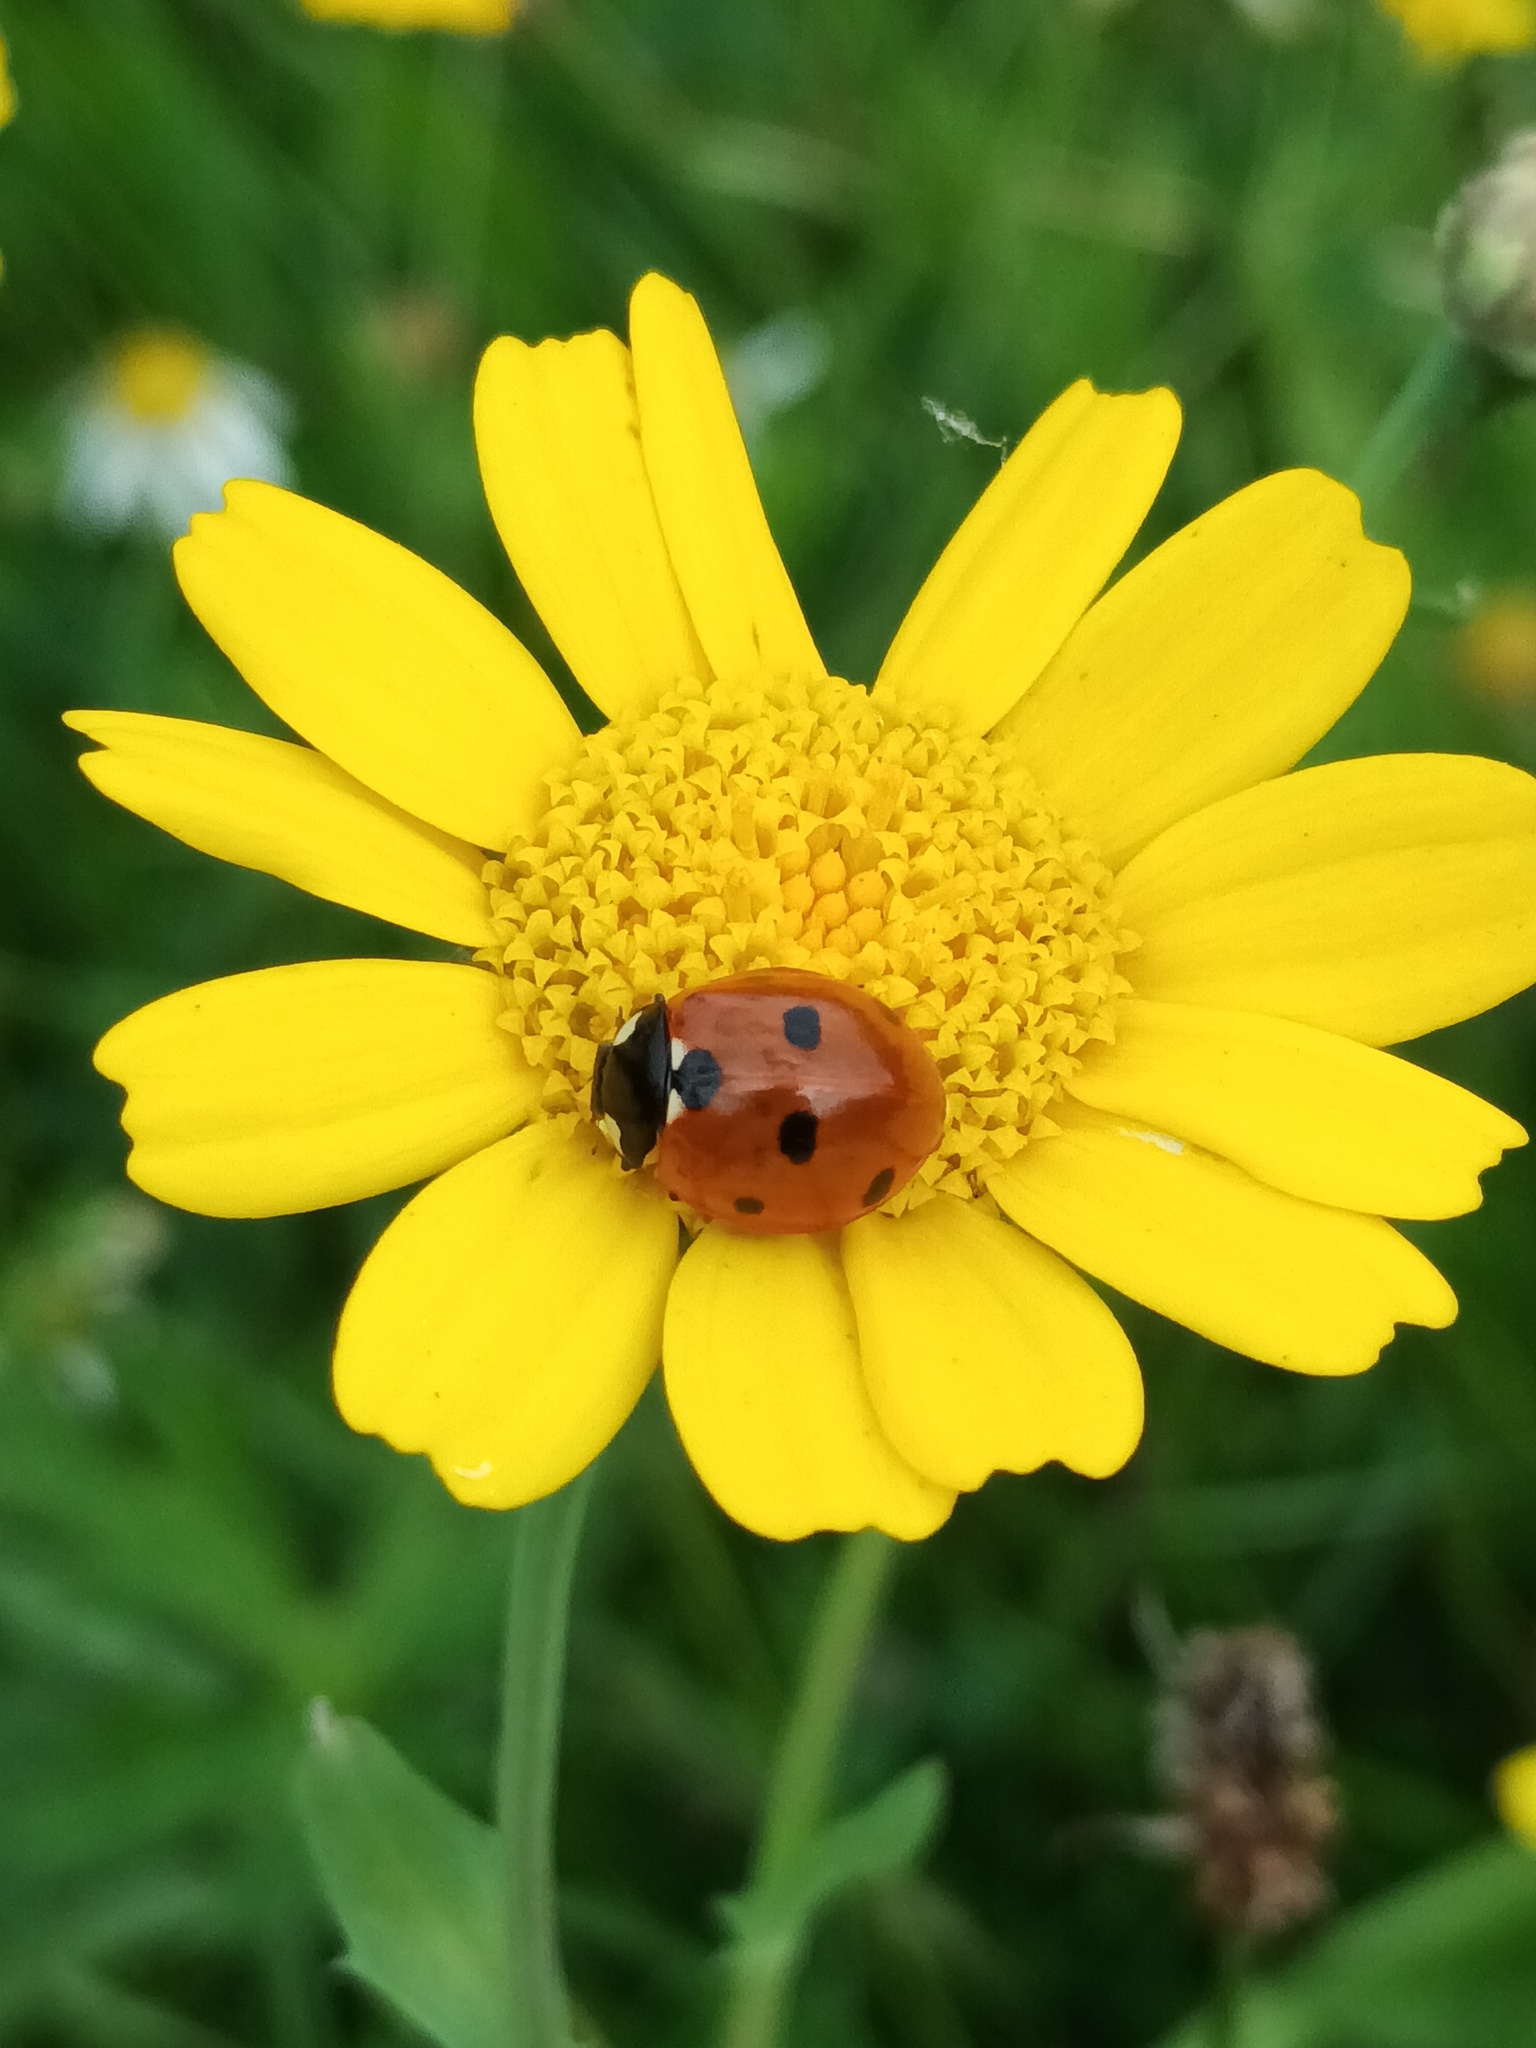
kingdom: Animalia
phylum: Arthropoda
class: Insecta
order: Coleoptera
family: Coccinellidae
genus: Coccinella
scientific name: Coccinella septempunctata
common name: Sevenspotted lady beetle
